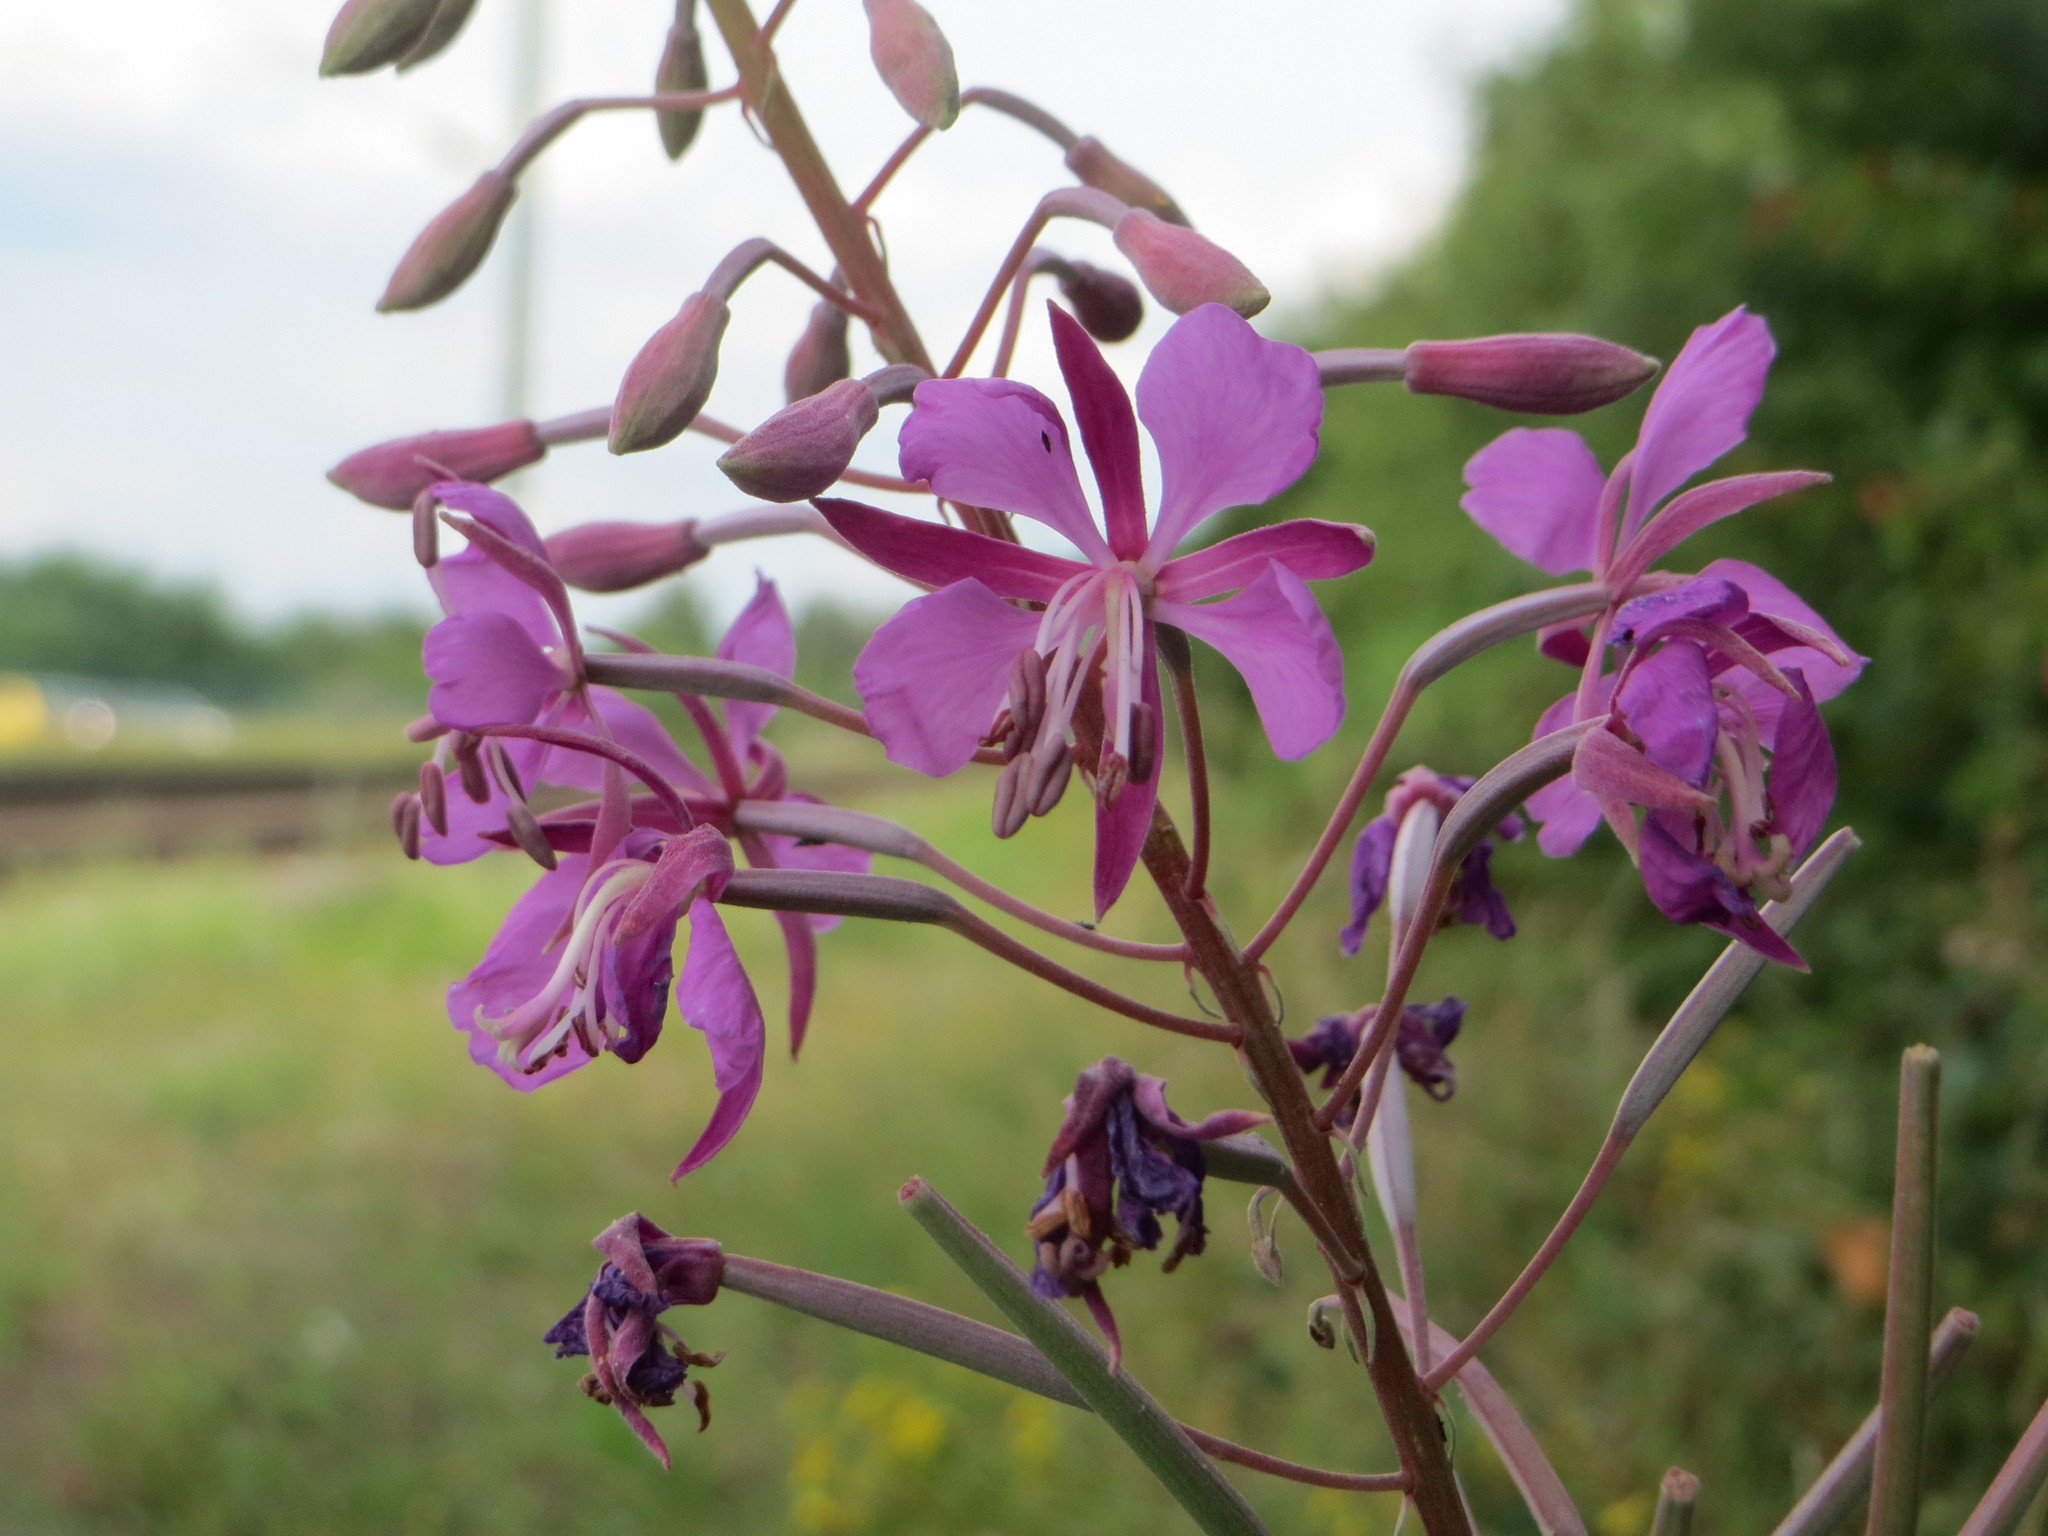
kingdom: Plantae
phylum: Tracheophyta
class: Magnoliopsida
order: Myrtales
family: Onagraceae
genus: Chamaenerion
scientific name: Chamaenerion angustifolium
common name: Fireweed
